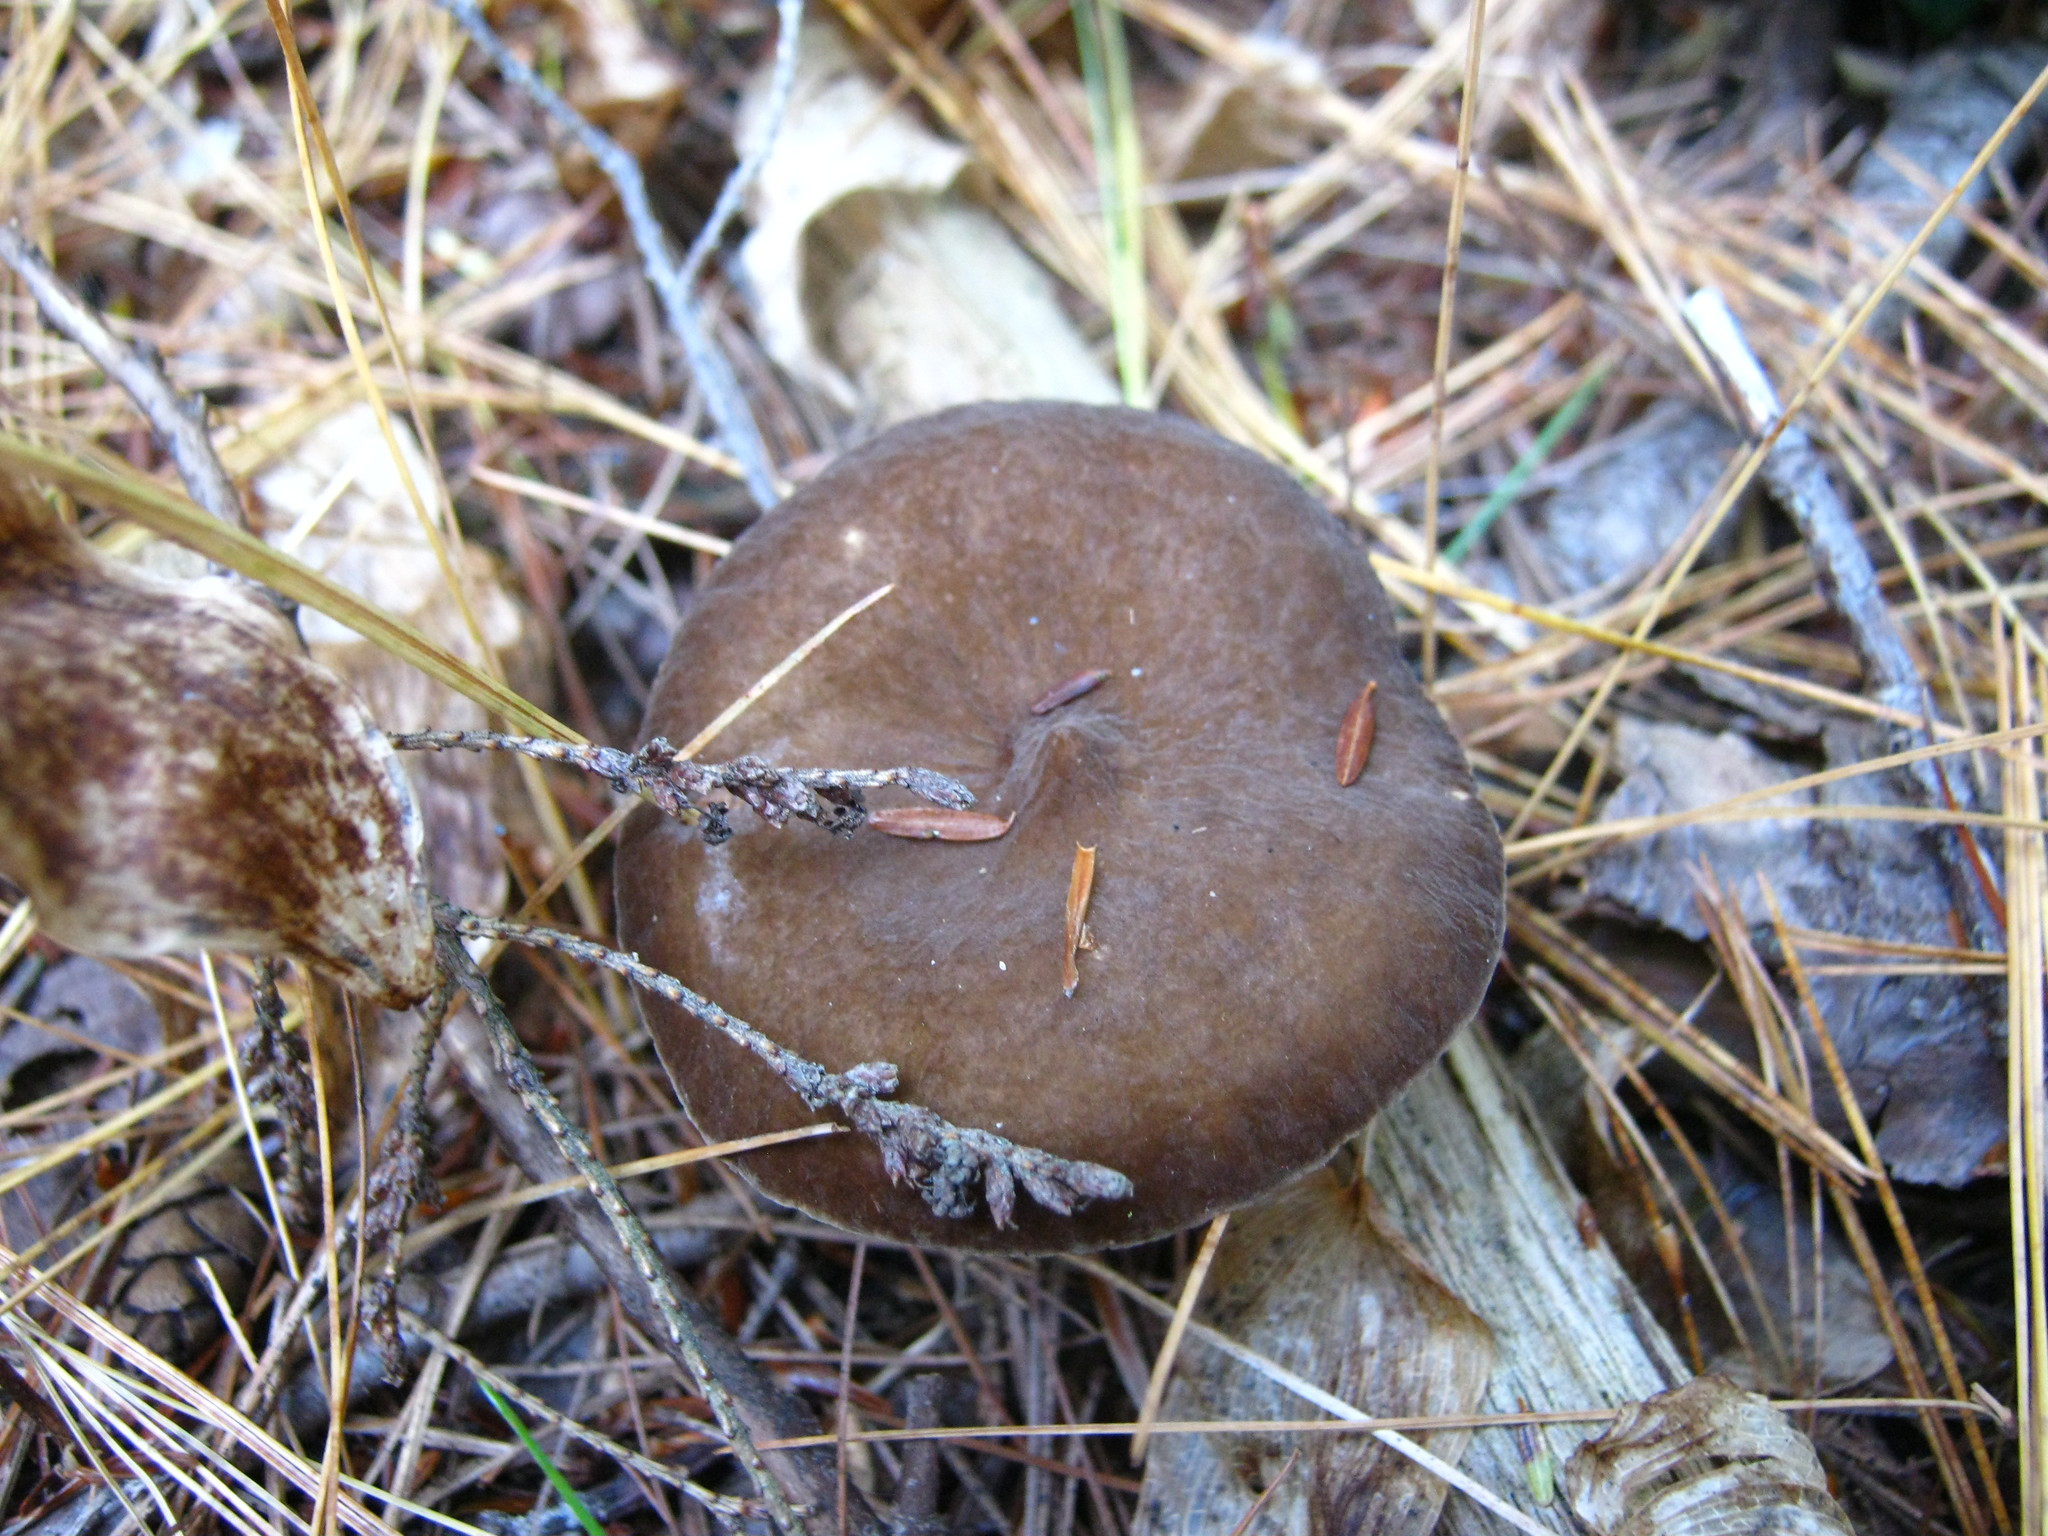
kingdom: Fungi
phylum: Basidiomycota
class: Agaricomycetes
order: Russulales
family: Russulaceae
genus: Lactarius
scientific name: Lactarius lignyotus
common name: Velvet milkcap
